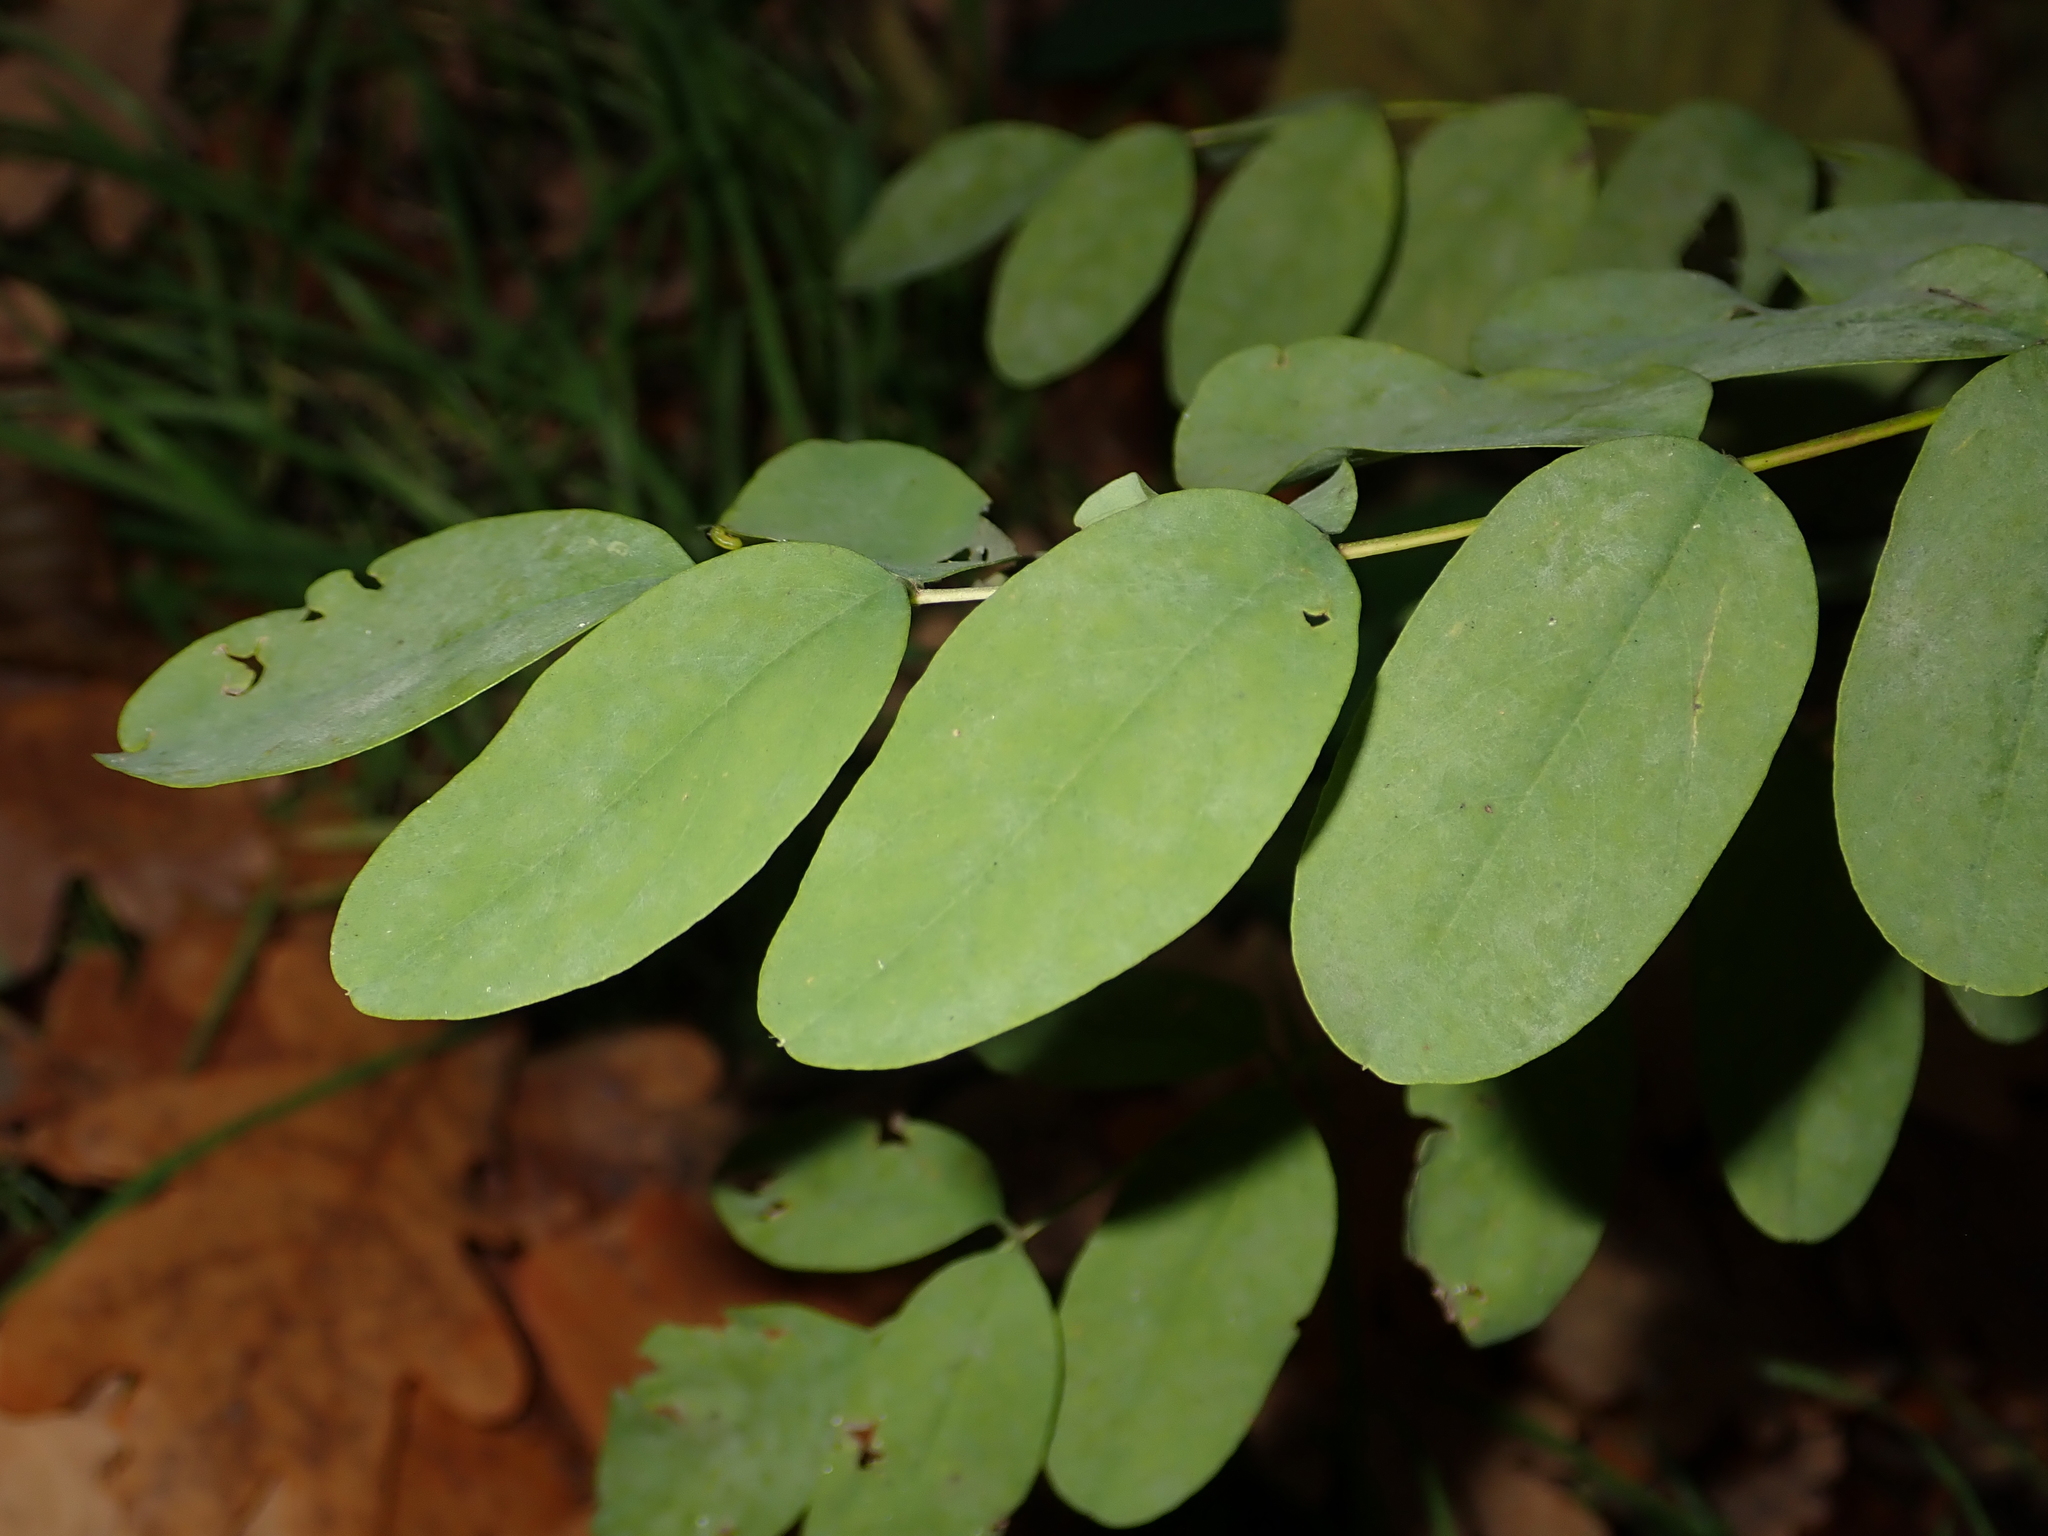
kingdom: Plantae
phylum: Tracheophyta
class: Magnoliopsida
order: Fabales
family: Fabaceae
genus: Robinia
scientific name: Robinia pseudoacacia
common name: Black locust
